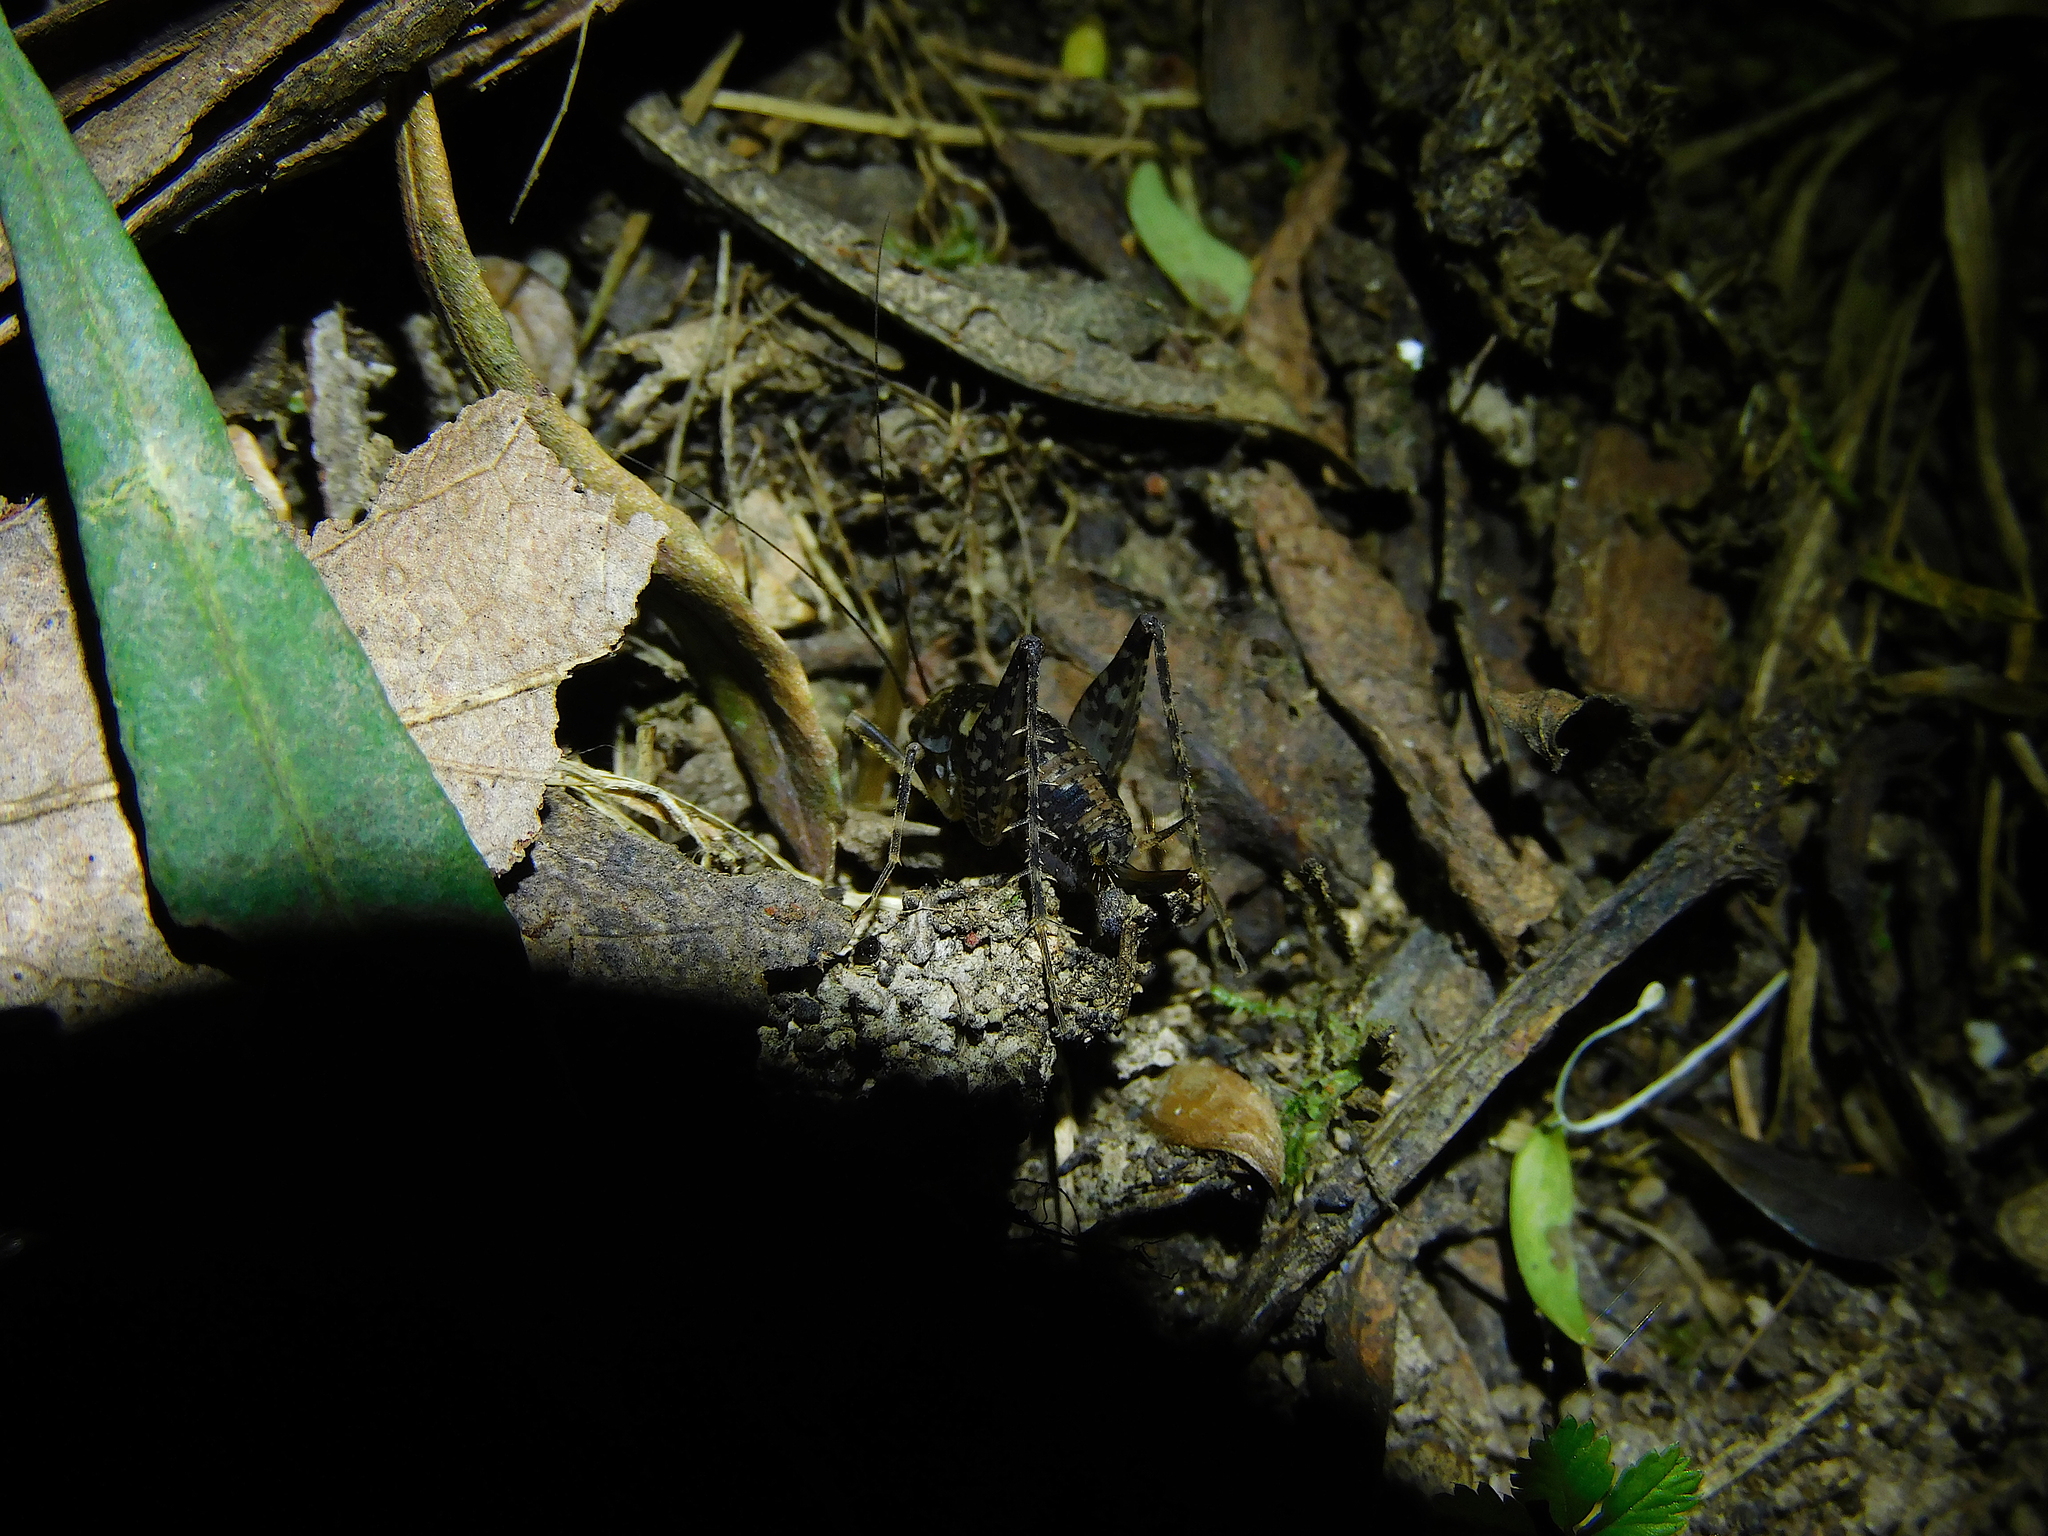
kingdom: Animalia
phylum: Arthropoda
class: Insecta
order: Orthoptera
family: Rhaphidophoridae
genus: Parvotettix
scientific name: Parvotettix domesticus
